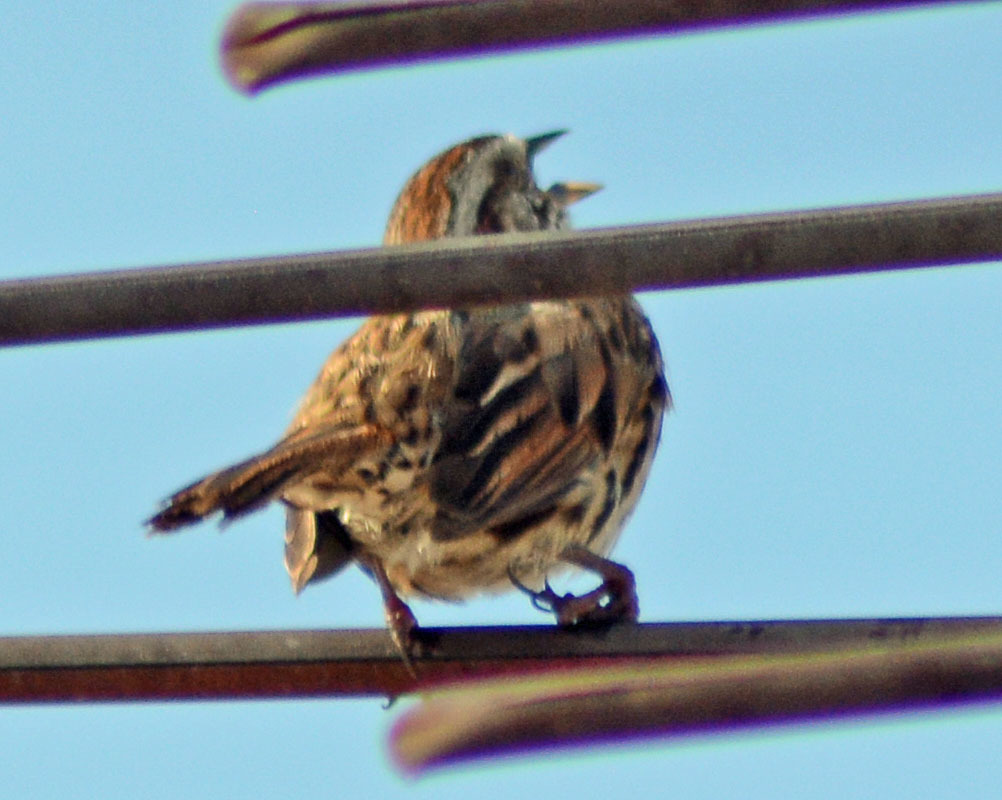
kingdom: Animalia
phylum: Chordata
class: Aves
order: Passeriformes
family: Passerellidae
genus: Melospiza
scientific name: Melospiza melodia
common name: Song sparrow
